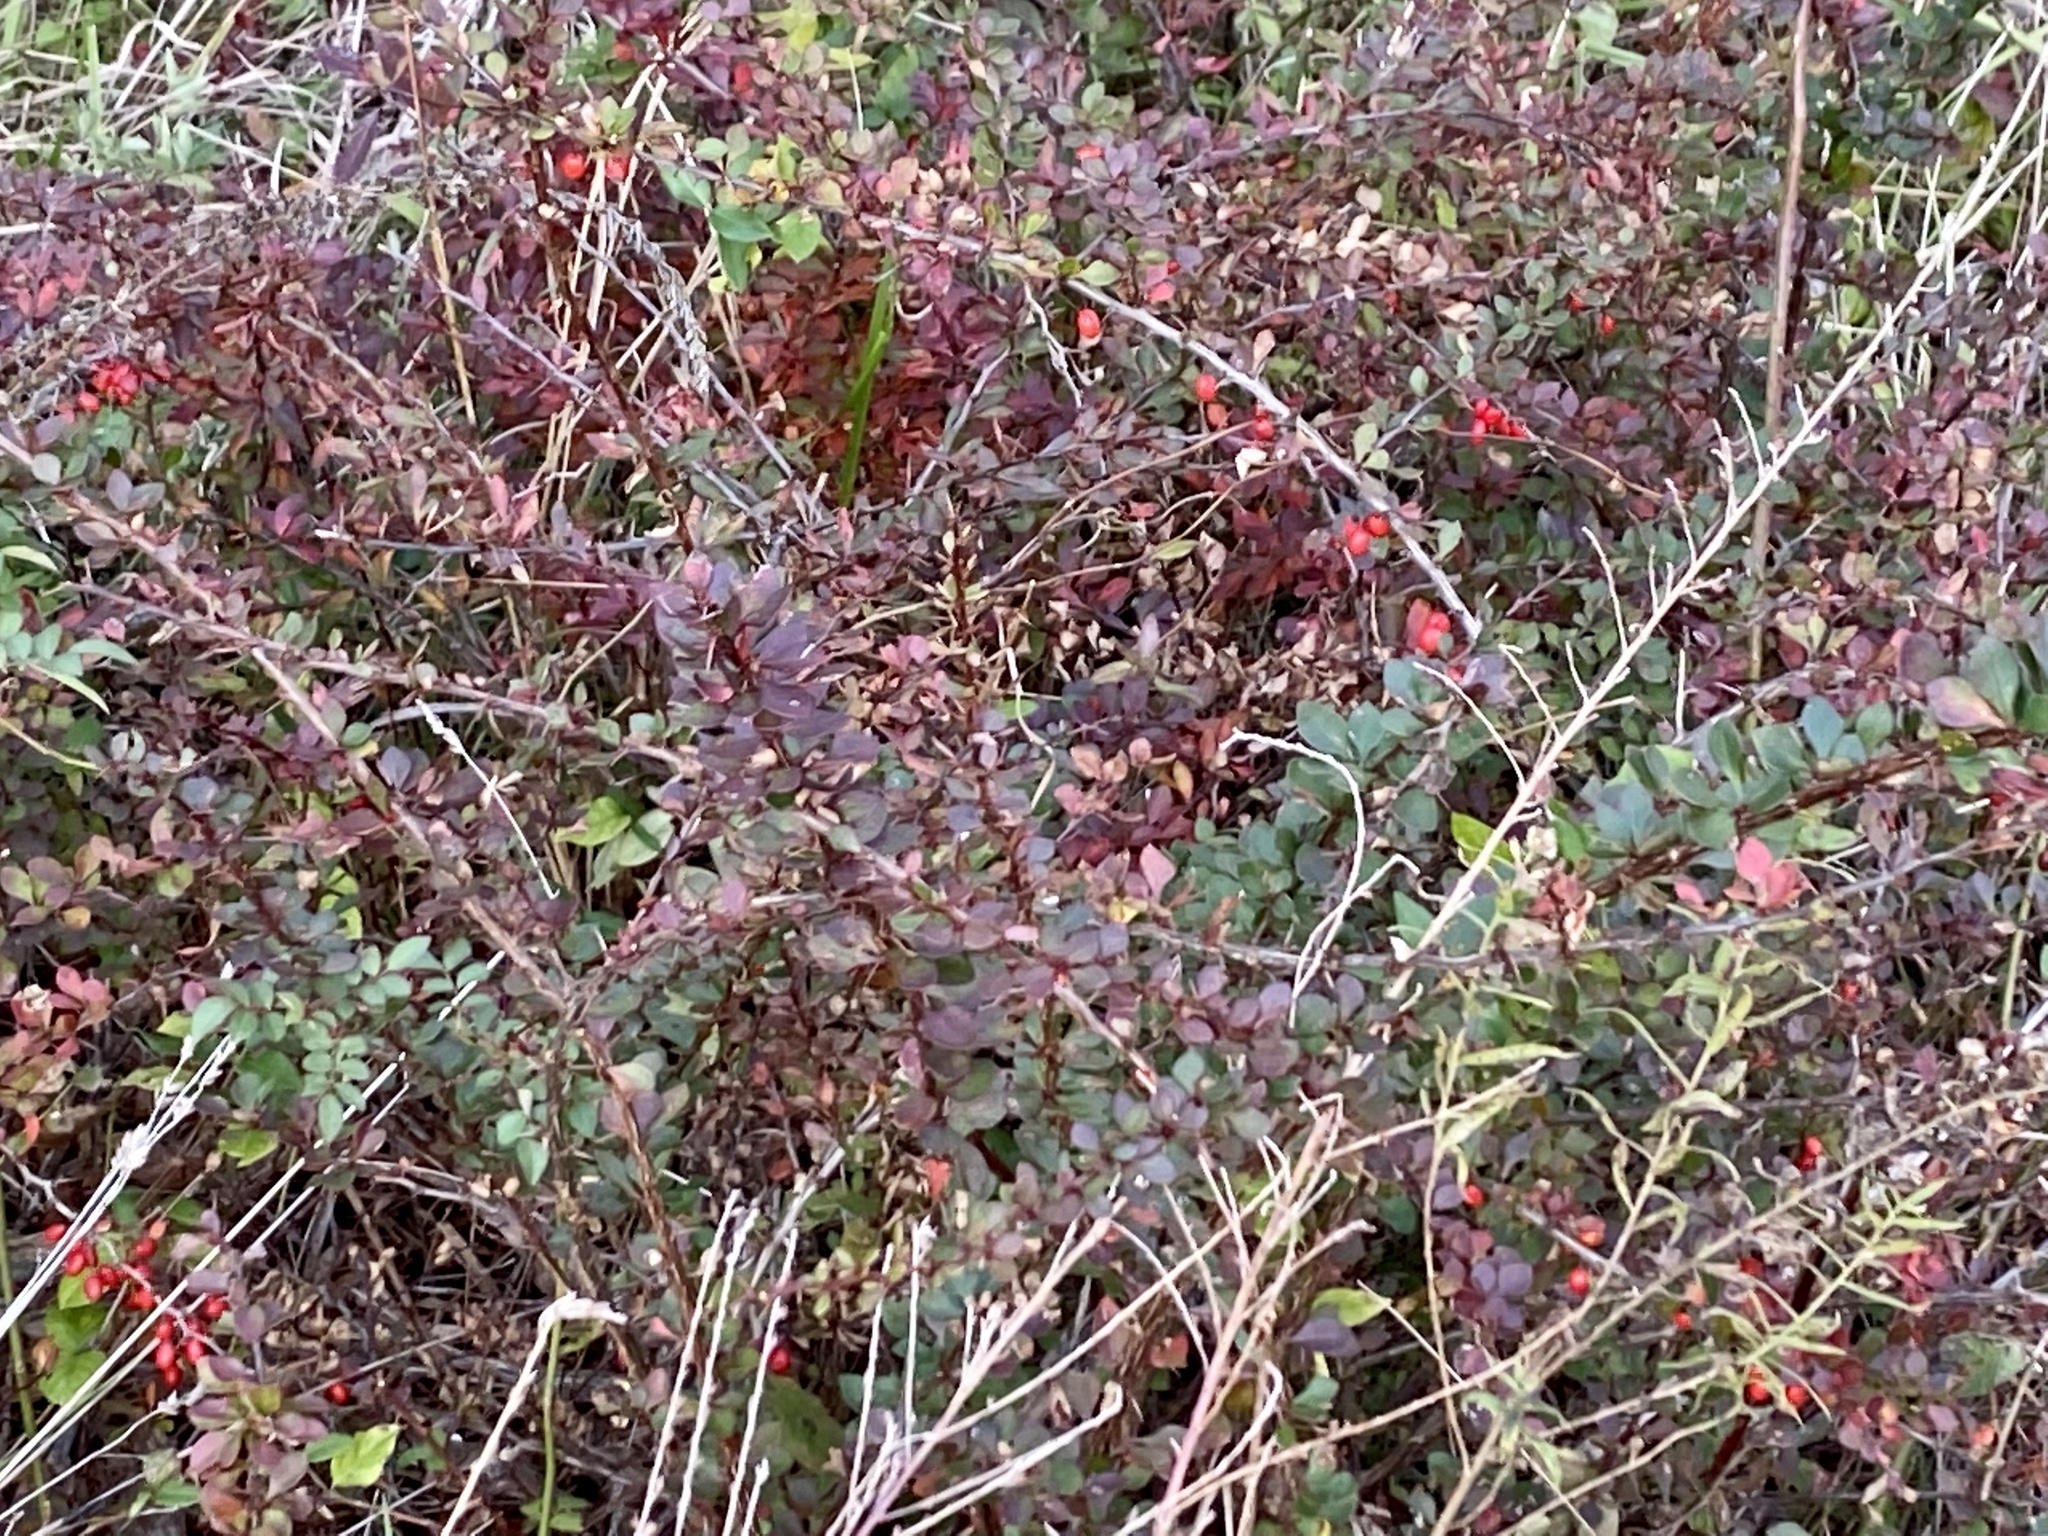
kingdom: Plantae
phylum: Tracheophyta
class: Magnoliopsida
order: Ranunculales
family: Berberidaceae
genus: Berberis
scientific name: Berberis thunbergii
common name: Japanese barberry
